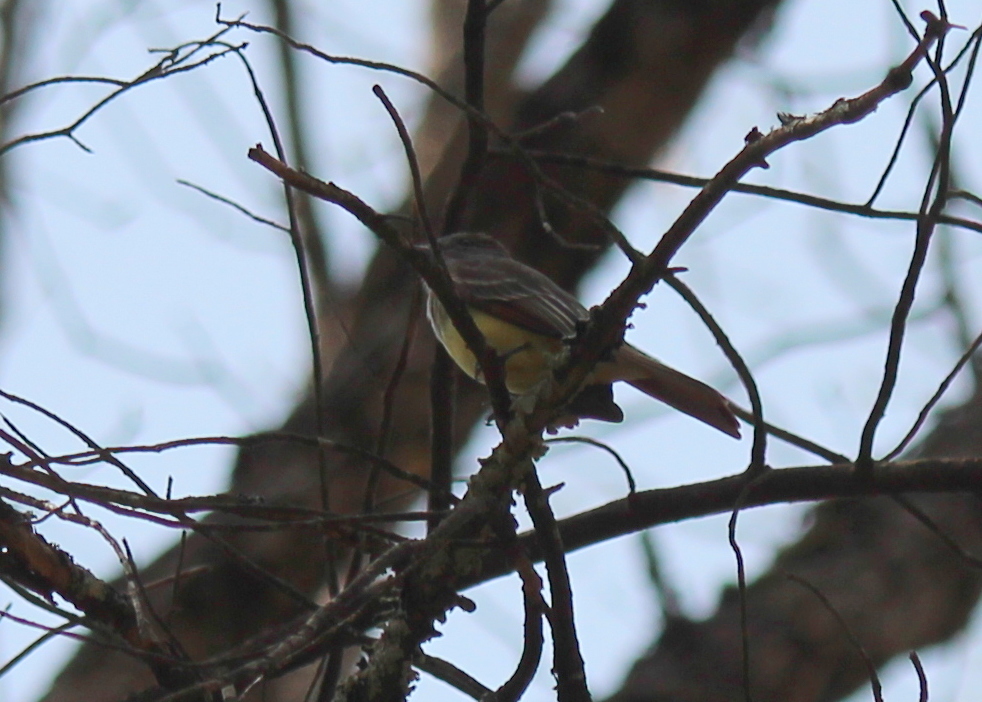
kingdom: Animalia
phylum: Chordata
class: Aves
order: Passeriformes
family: Tyrannidae
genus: Myiarchus
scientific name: Myiarchus crinitus
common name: Great crested flycatcher
